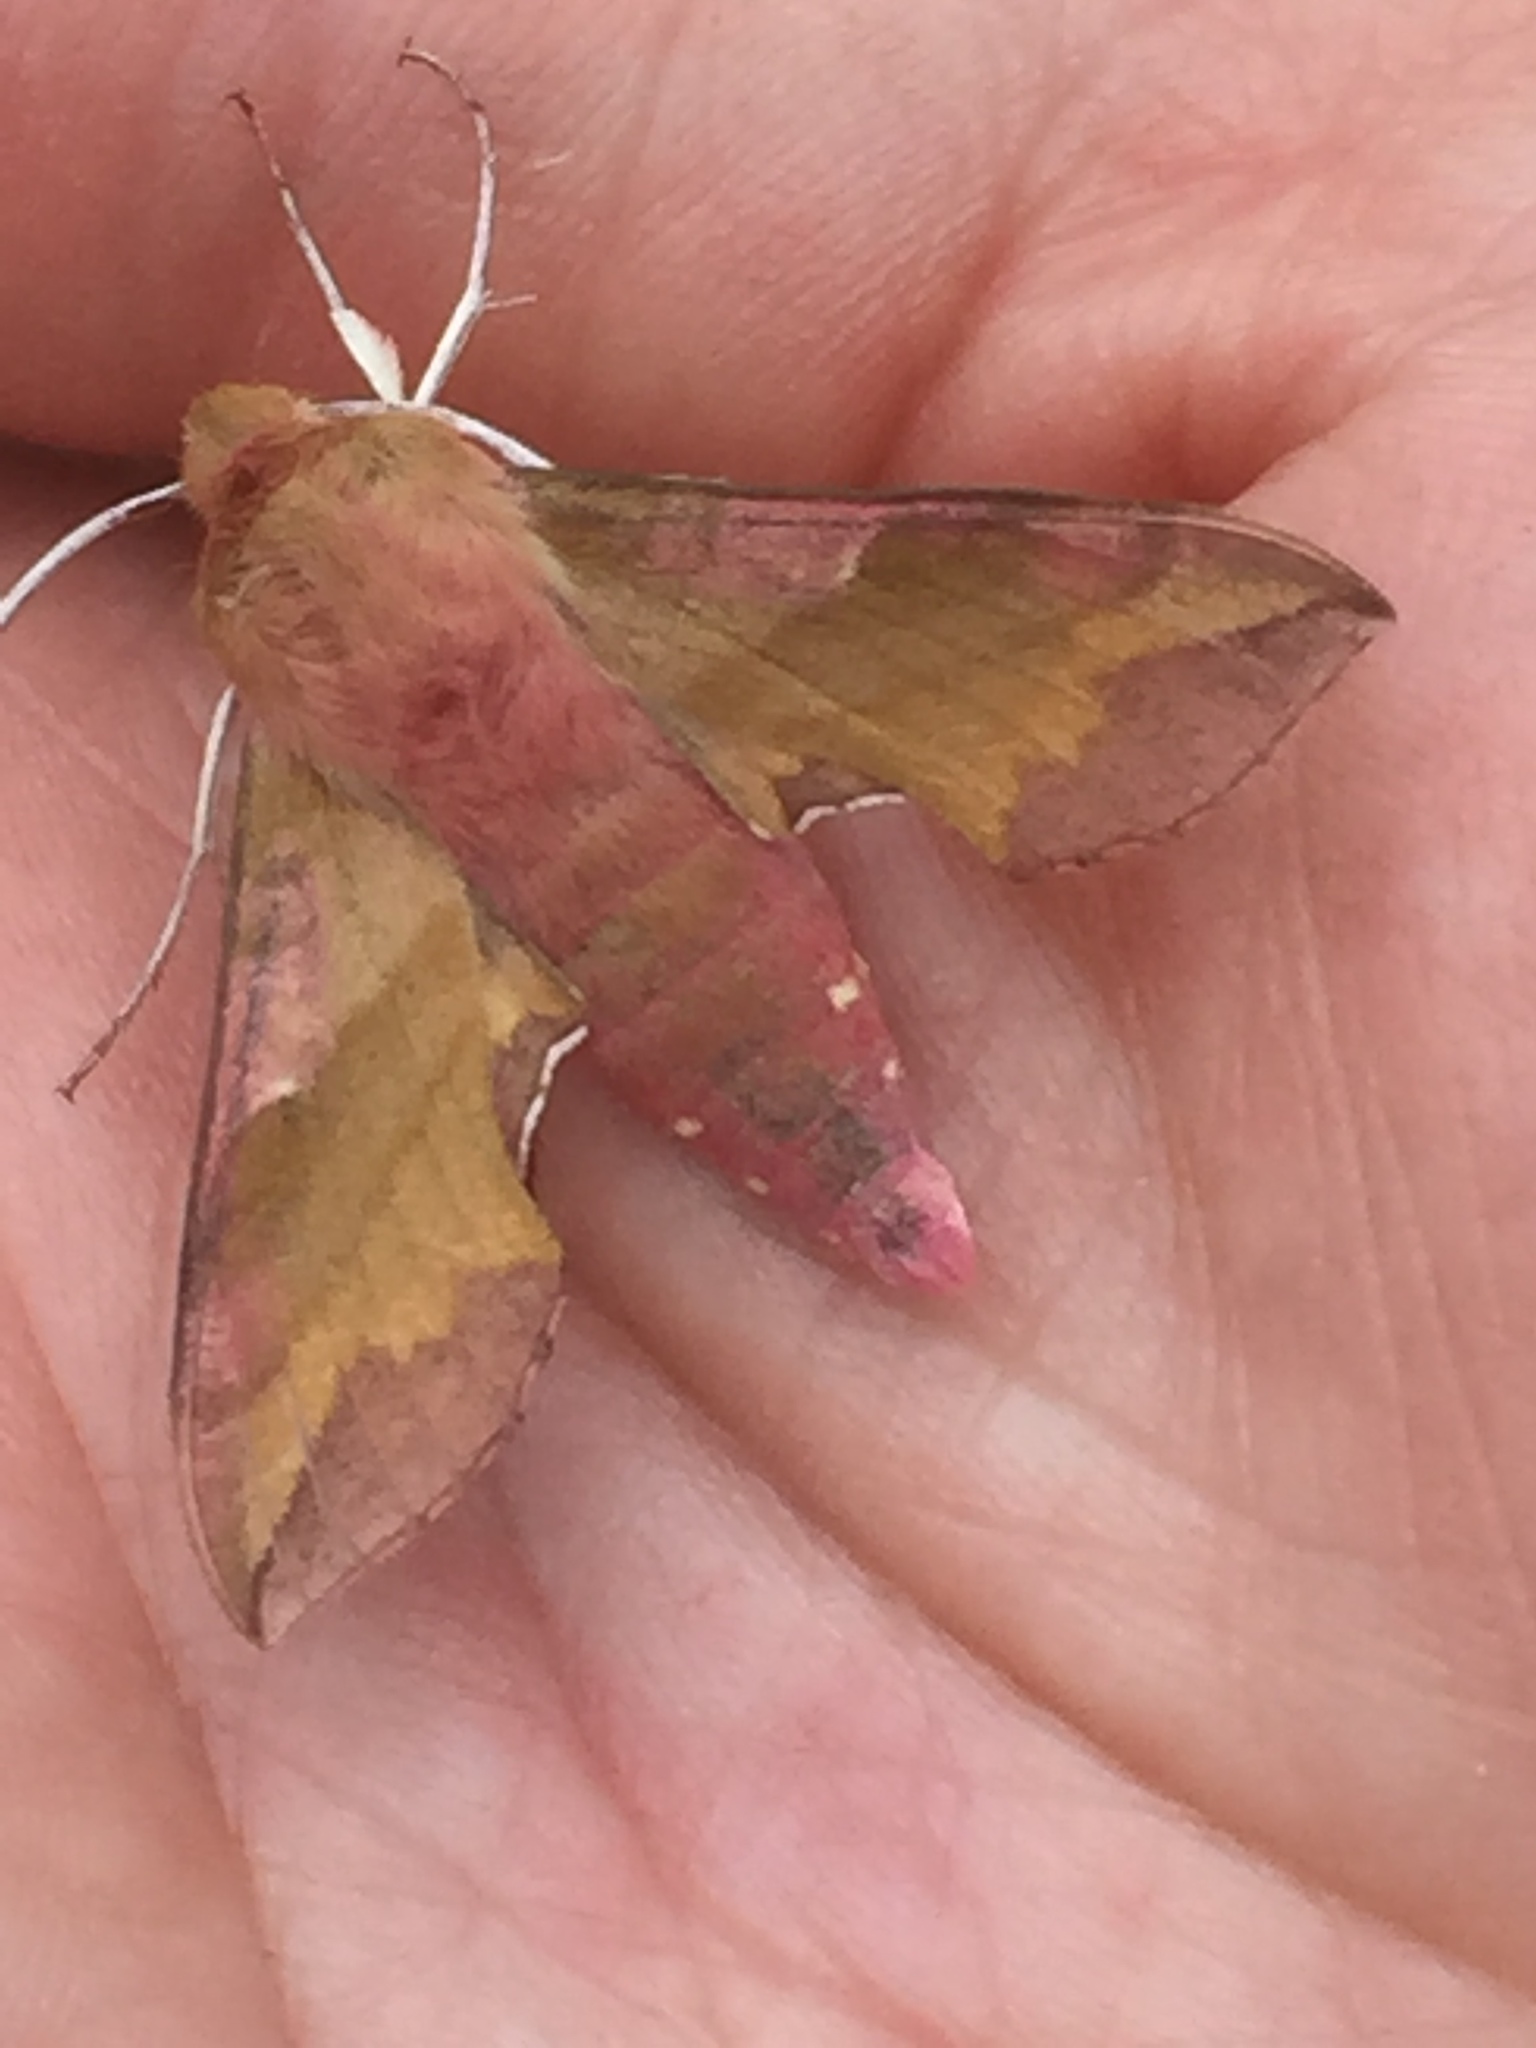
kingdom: Animalia
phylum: Arthropoda
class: Insecta
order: Lepidoptera
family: Sphingidae
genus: Deilephila
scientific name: Deilephila porcellus
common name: Small elephant hawk-moth
